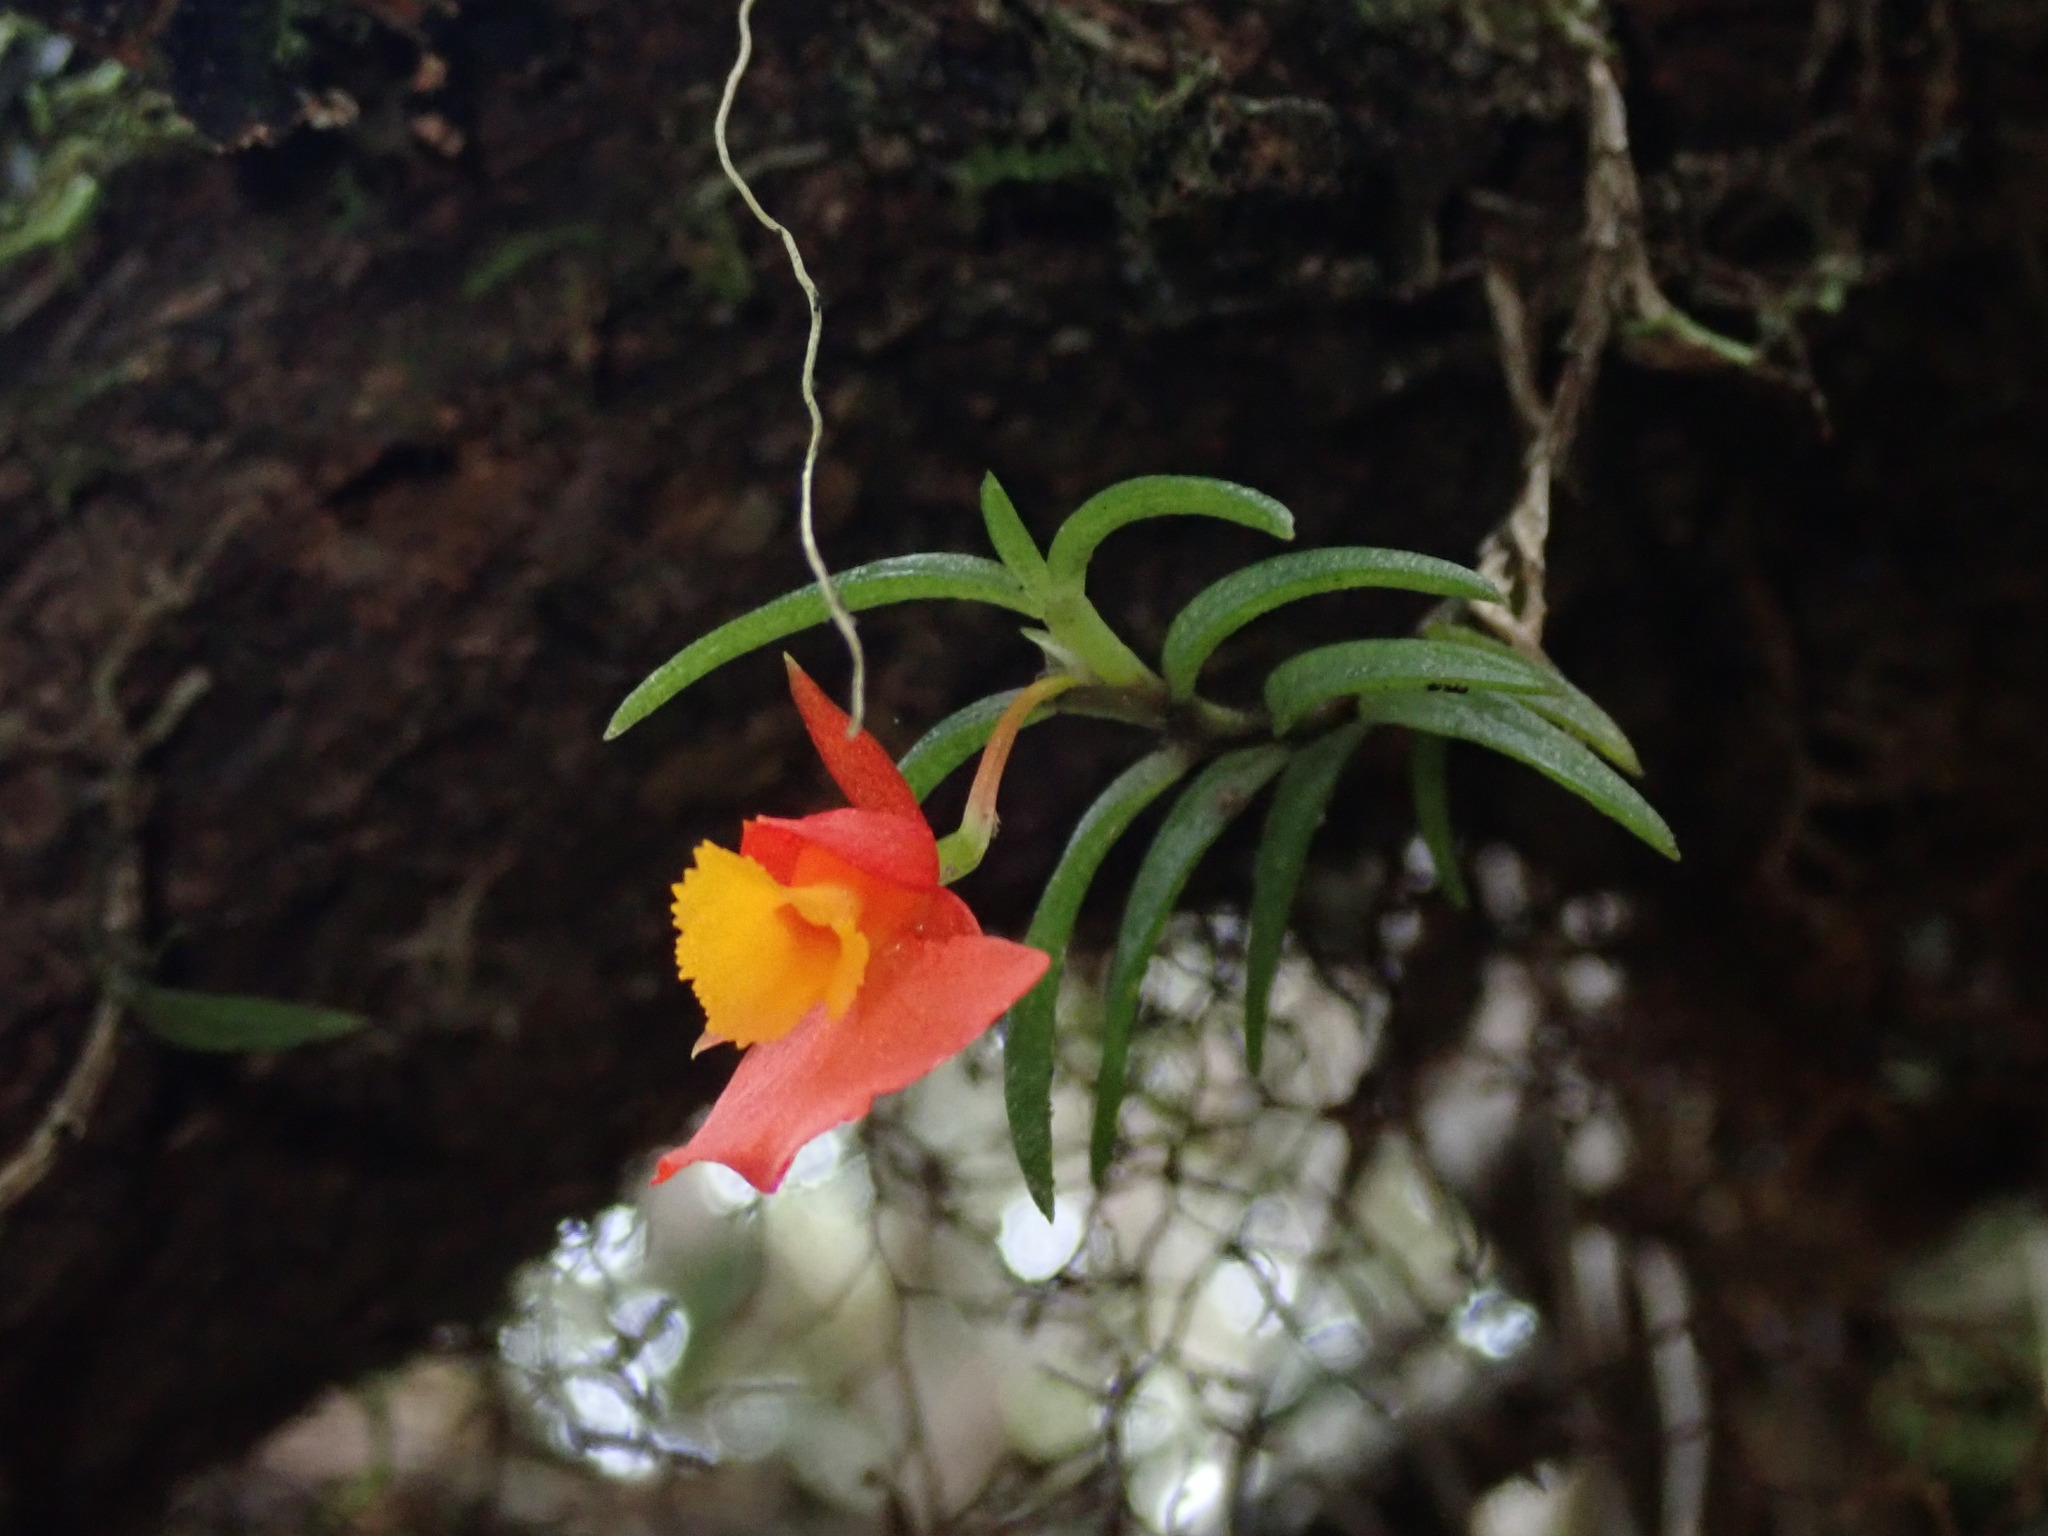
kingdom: Plantae
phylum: Tracheophyta
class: Liliopsida
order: Asparagales
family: Orchidaceae
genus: Fernandezia
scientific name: Fernandezia subbiflora
